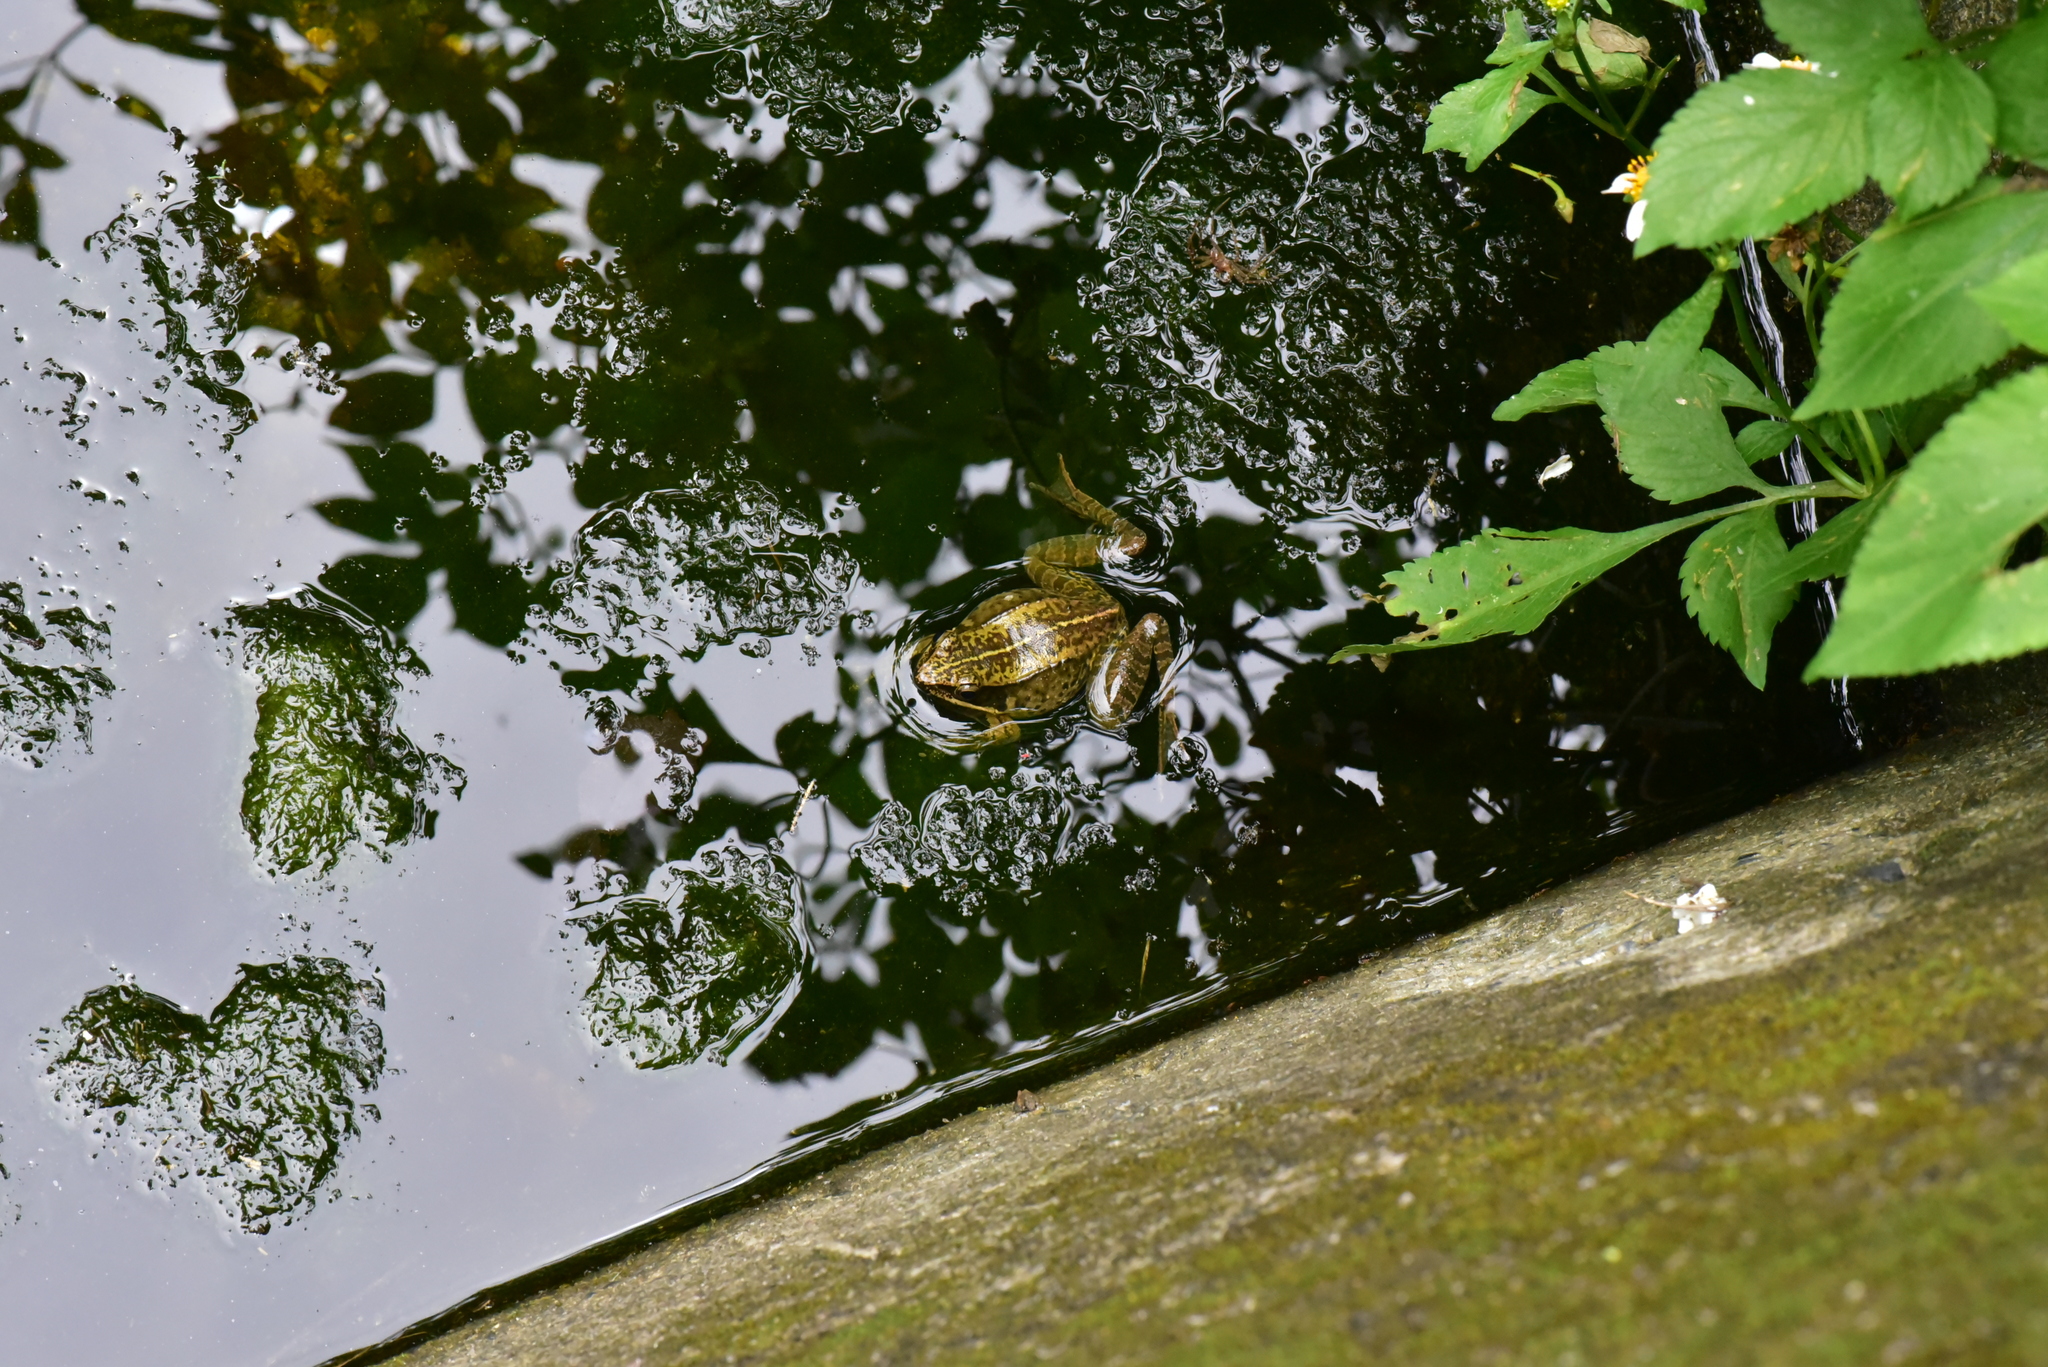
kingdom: Animalia
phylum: Chordata
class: Amphibia
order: Anura
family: Ranidae
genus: Nidirana
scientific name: Nidirana adenopleura
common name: Olive frog
